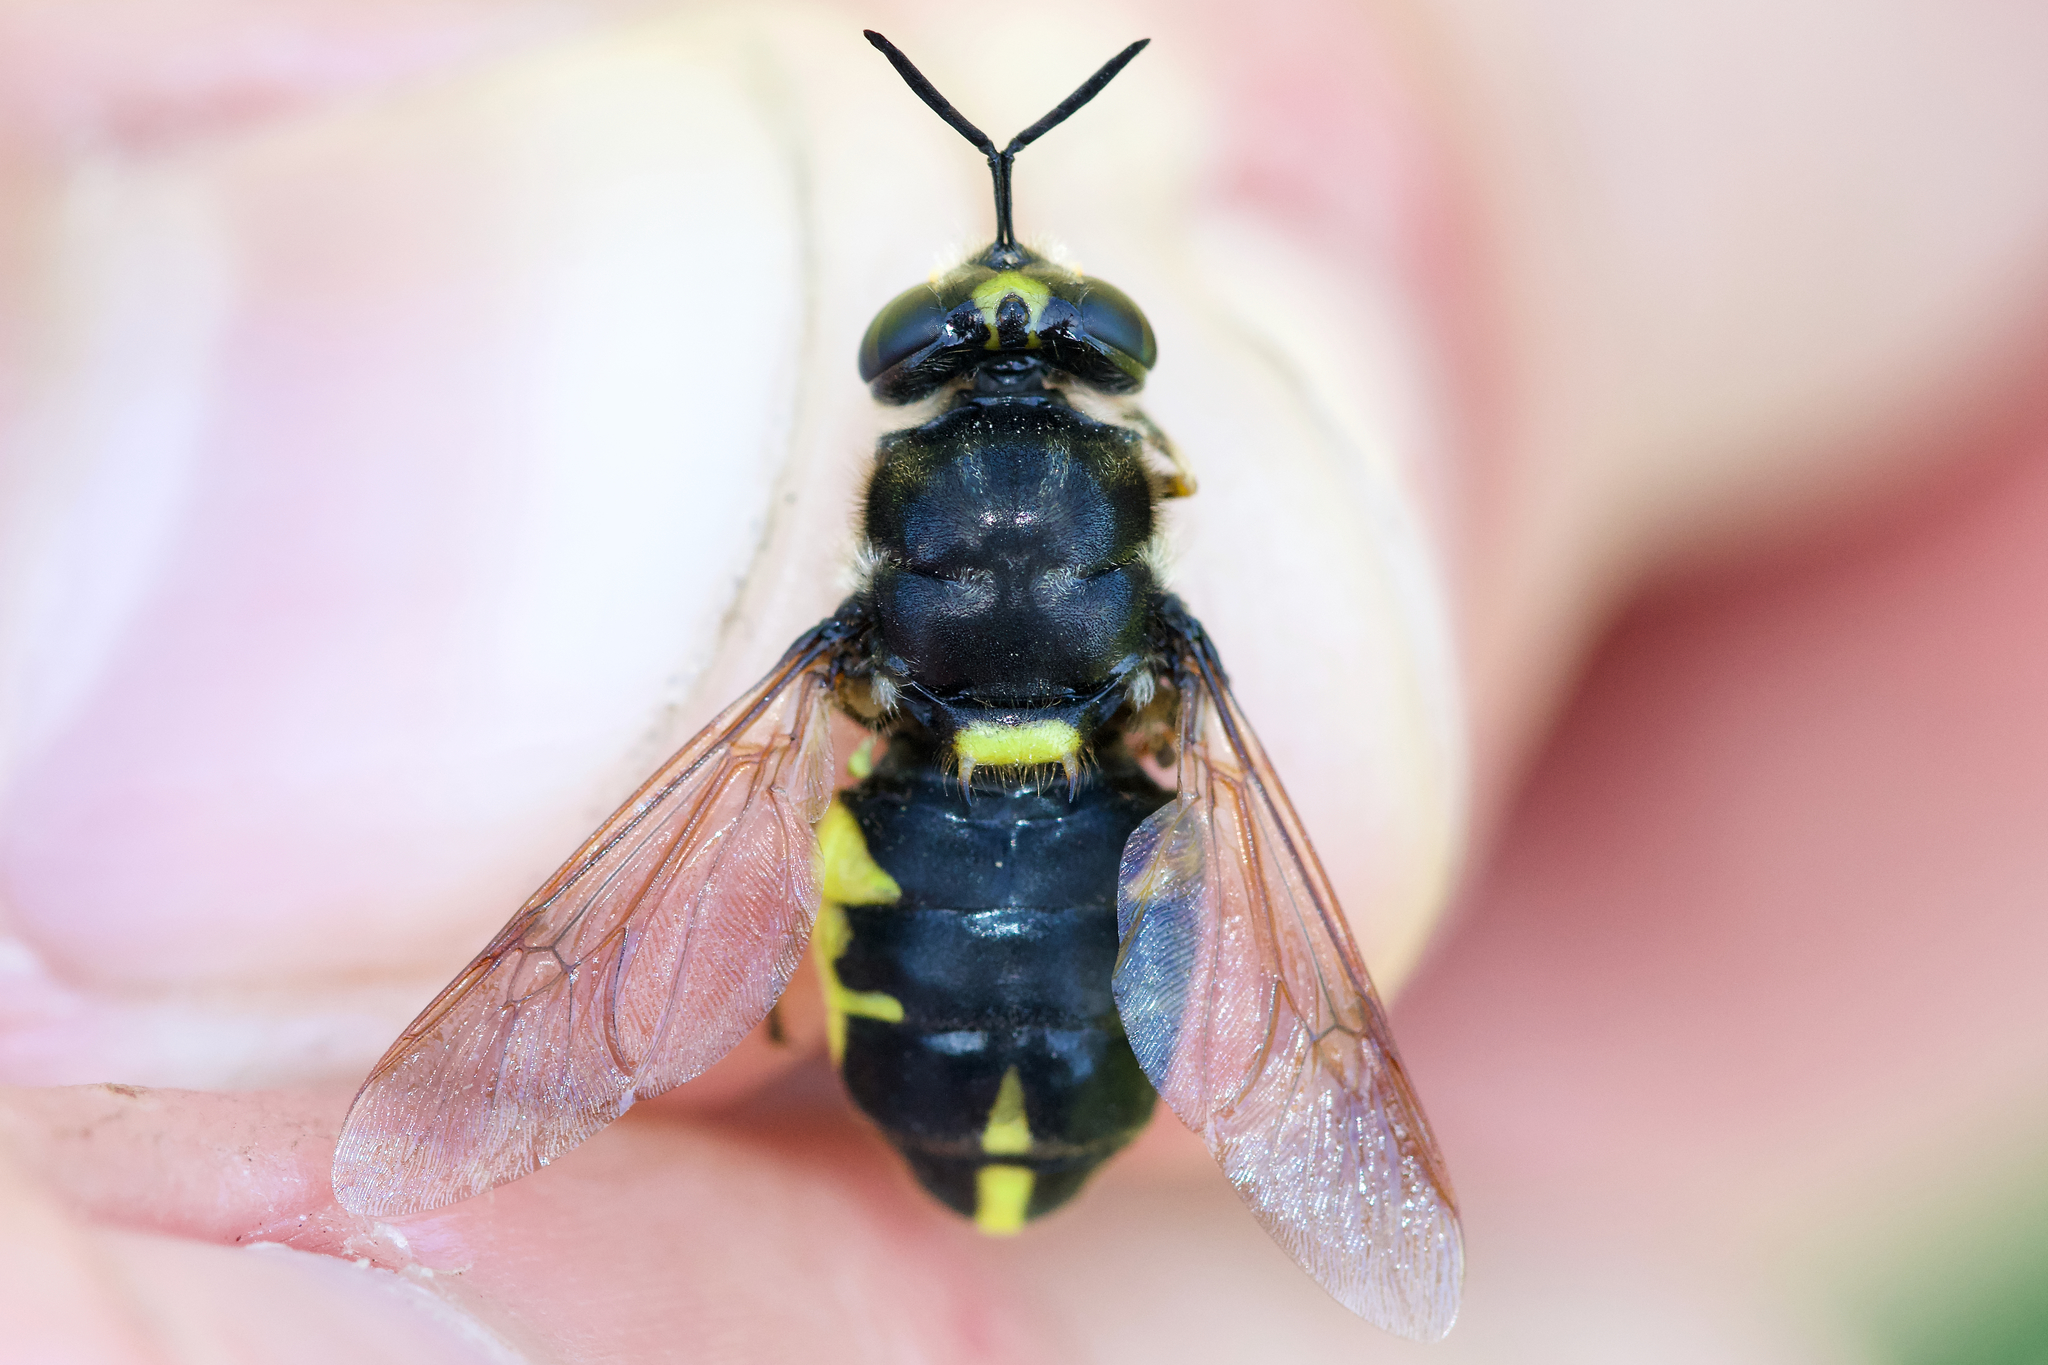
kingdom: Animalia
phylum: Arthropoda
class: Insecta
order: Diptera
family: Stratiomyidae
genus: Stratiomys
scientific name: Stratiomys norma
